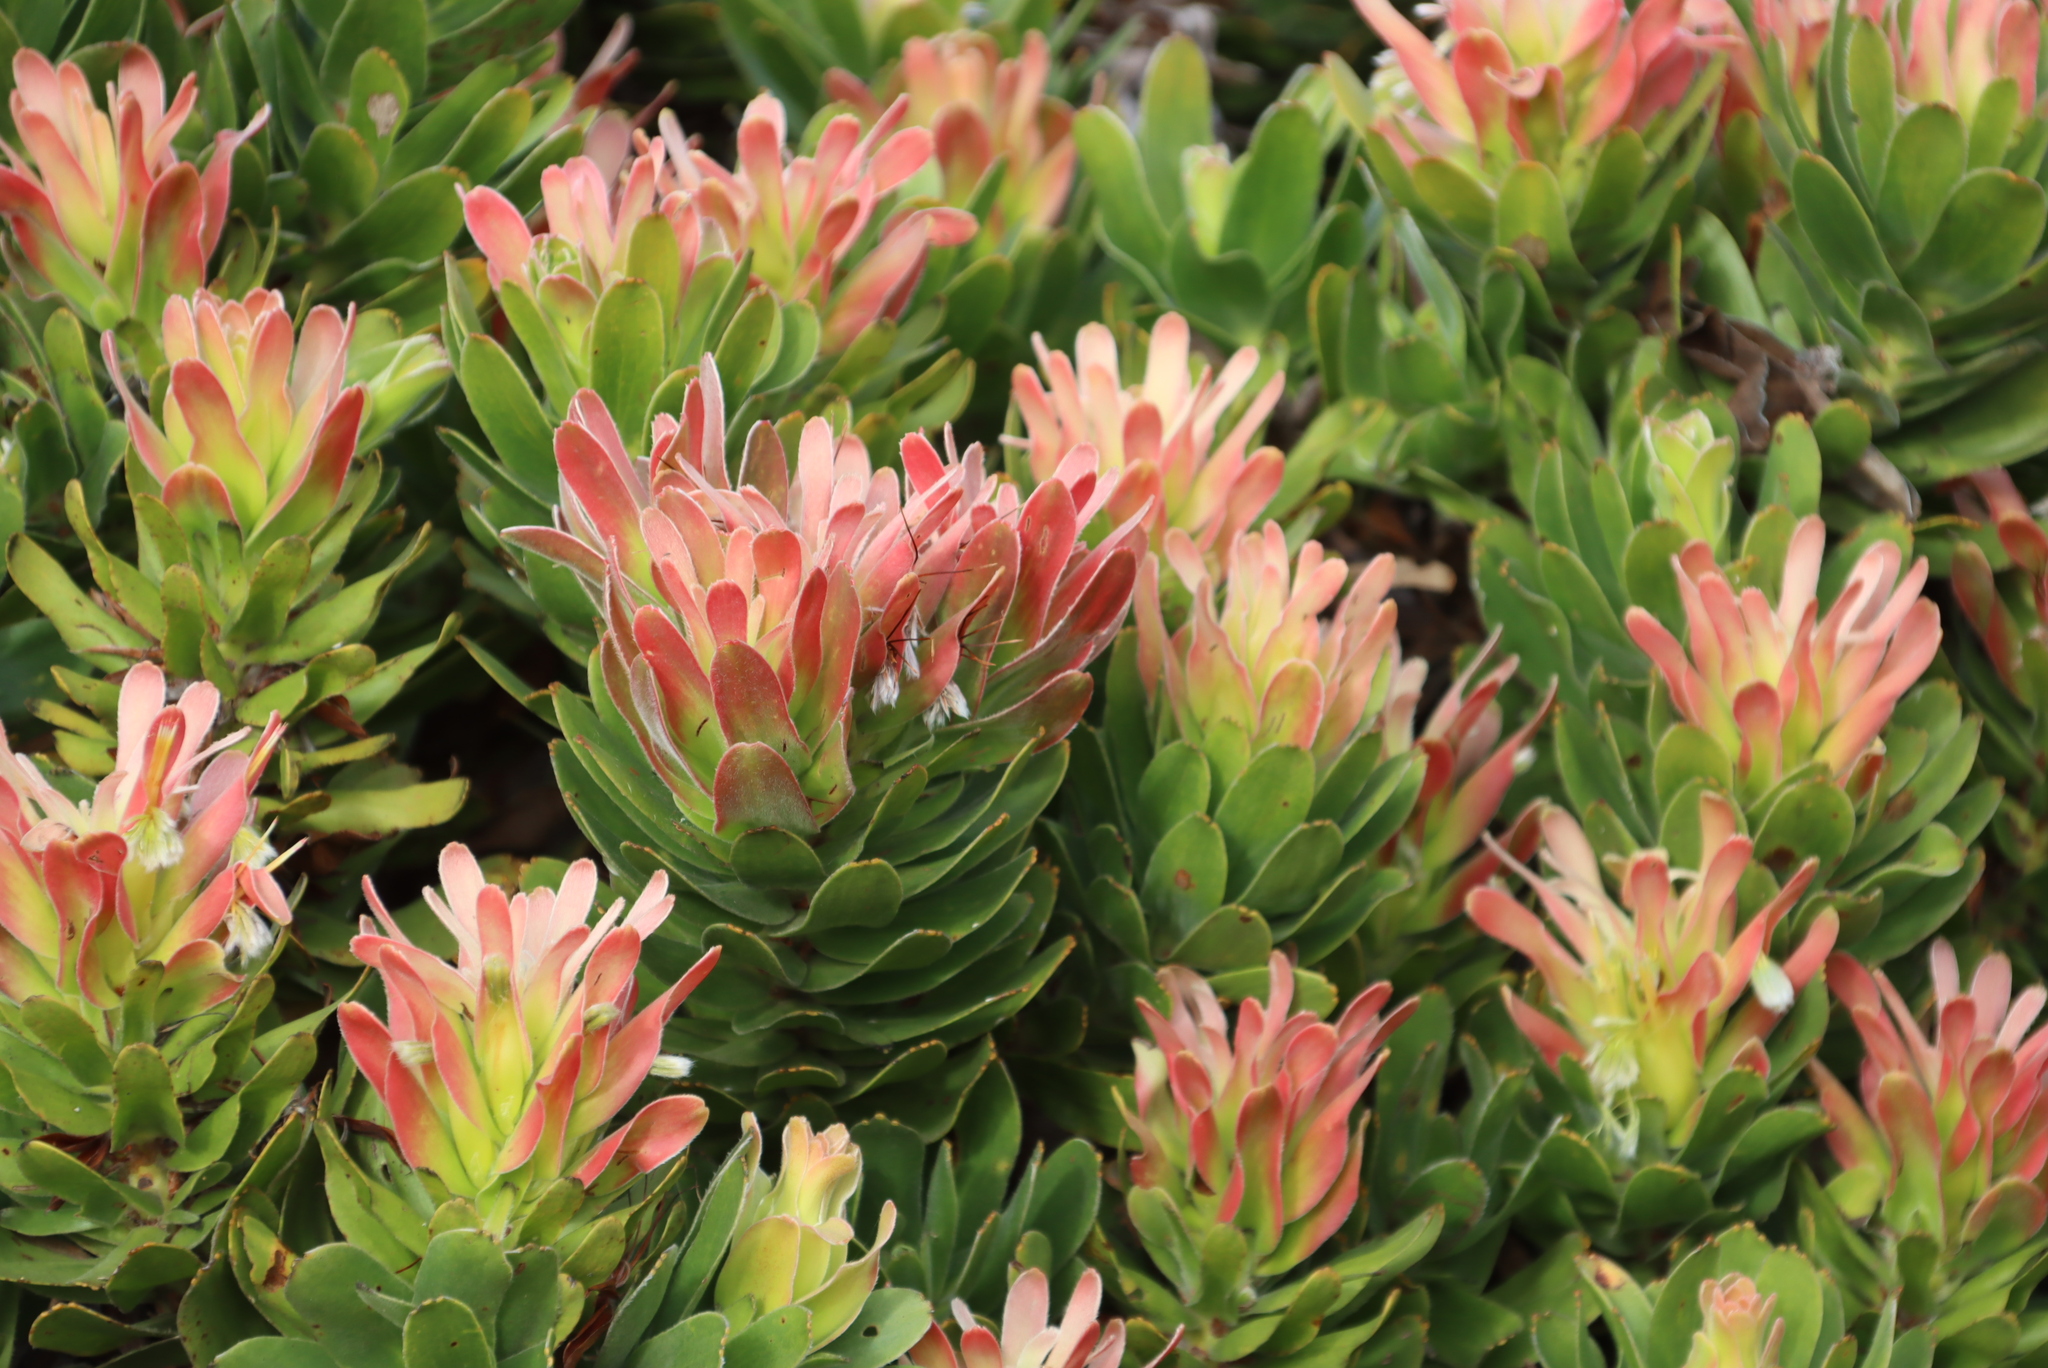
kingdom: Plantae
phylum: Tracheophyta
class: Magnoliopsida
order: Proteales
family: Proteaceae
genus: Mimetes
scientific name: Mimetes fimbriifolius
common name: Fringed bottlebrush
